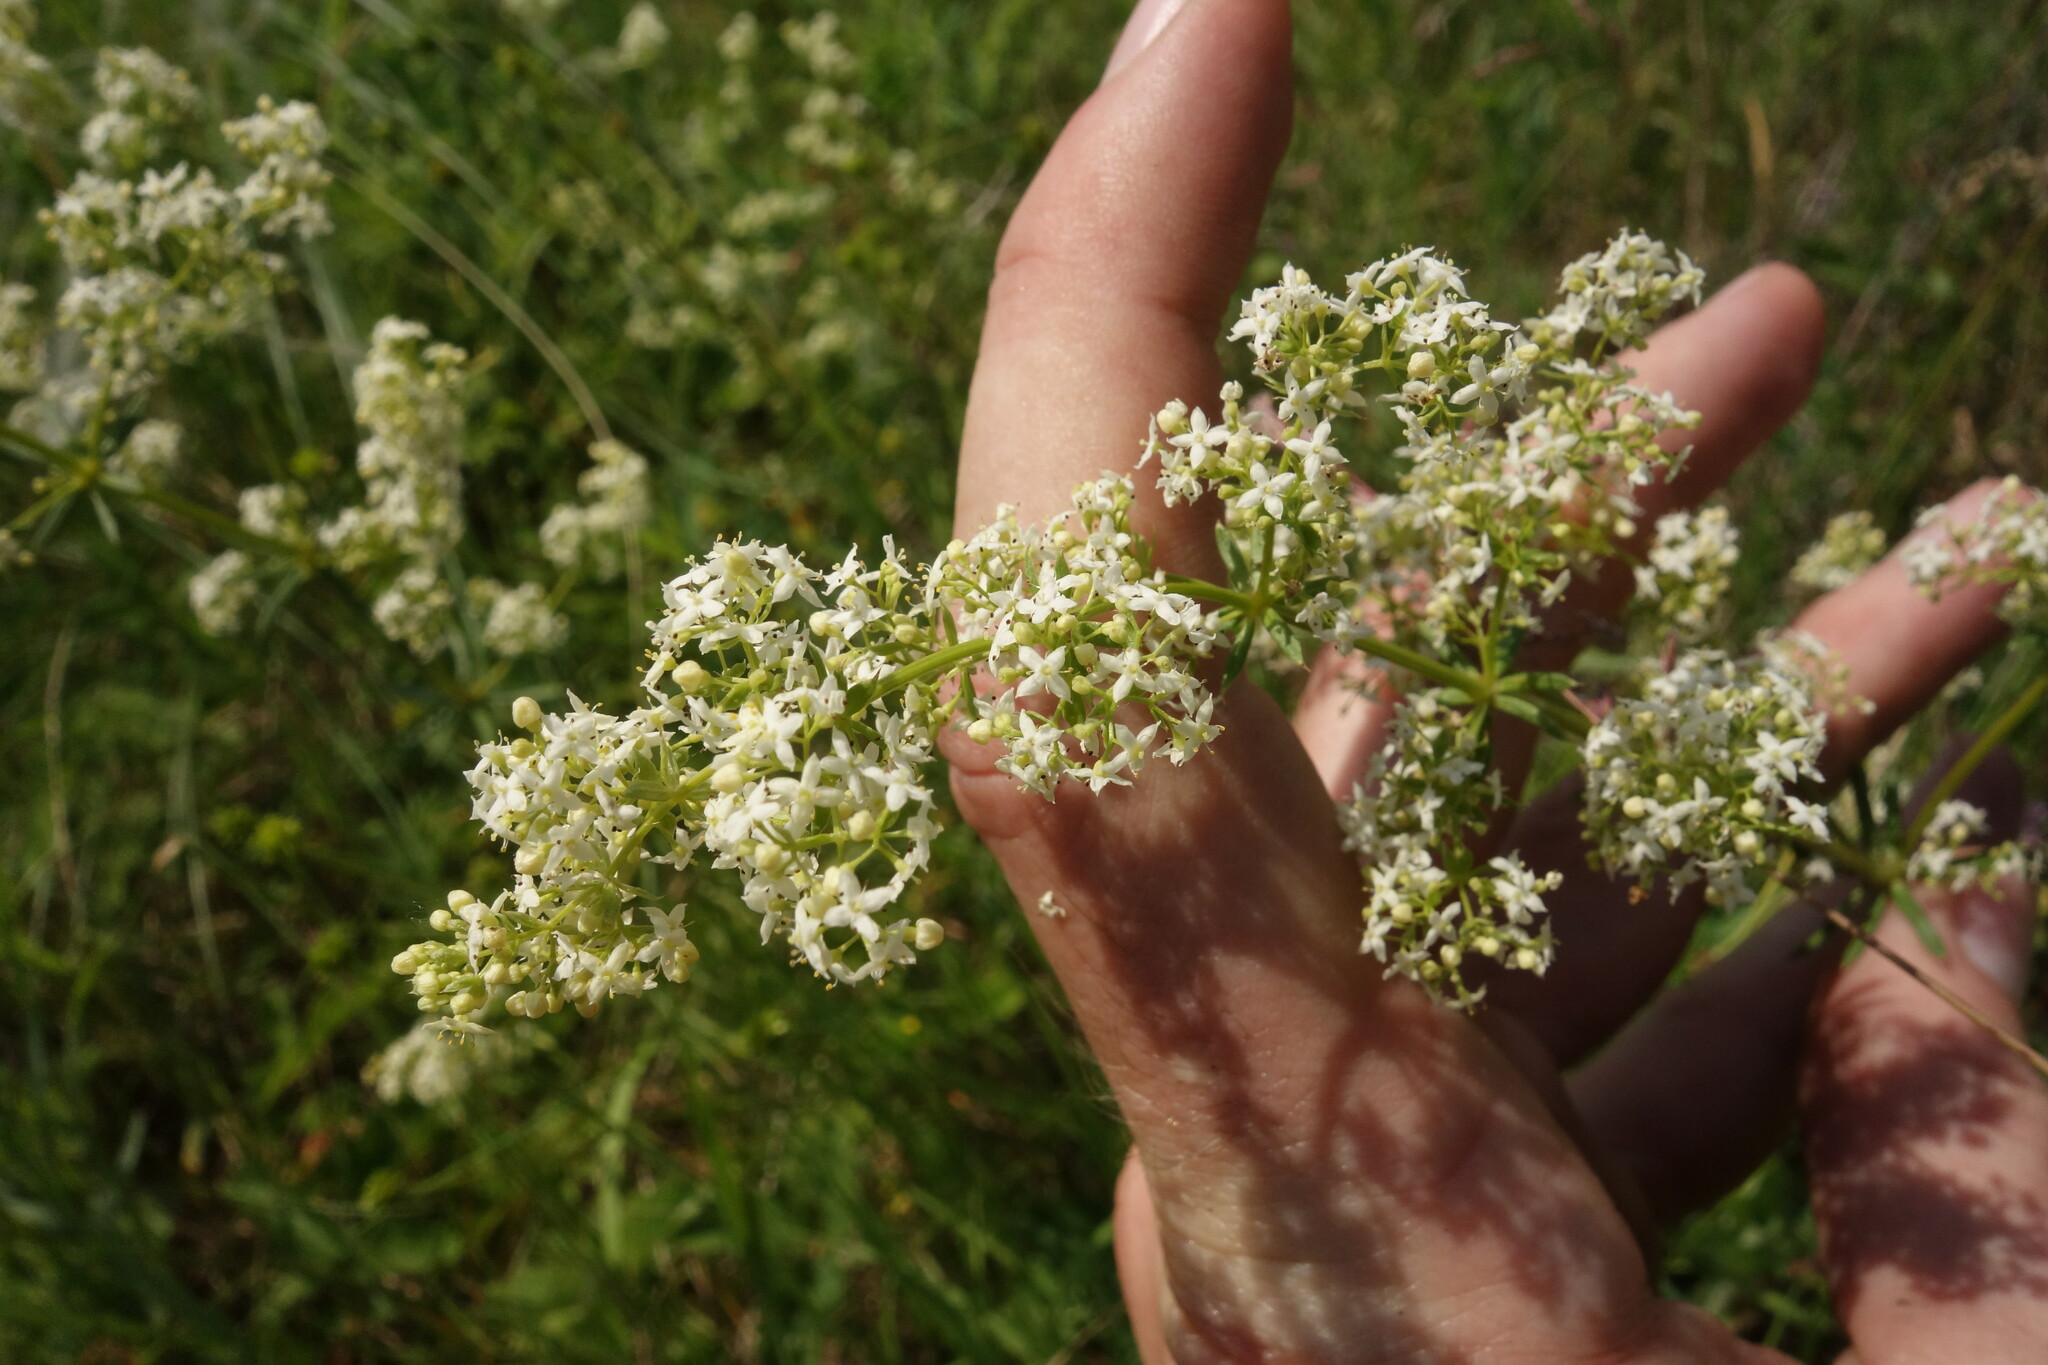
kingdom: Plantae
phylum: Tracheophyta
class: Magnoliopsida
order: Gentianales
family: Rubiaceae
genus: Galium
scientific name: Galium mollugo
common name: Hedge bedstraw
